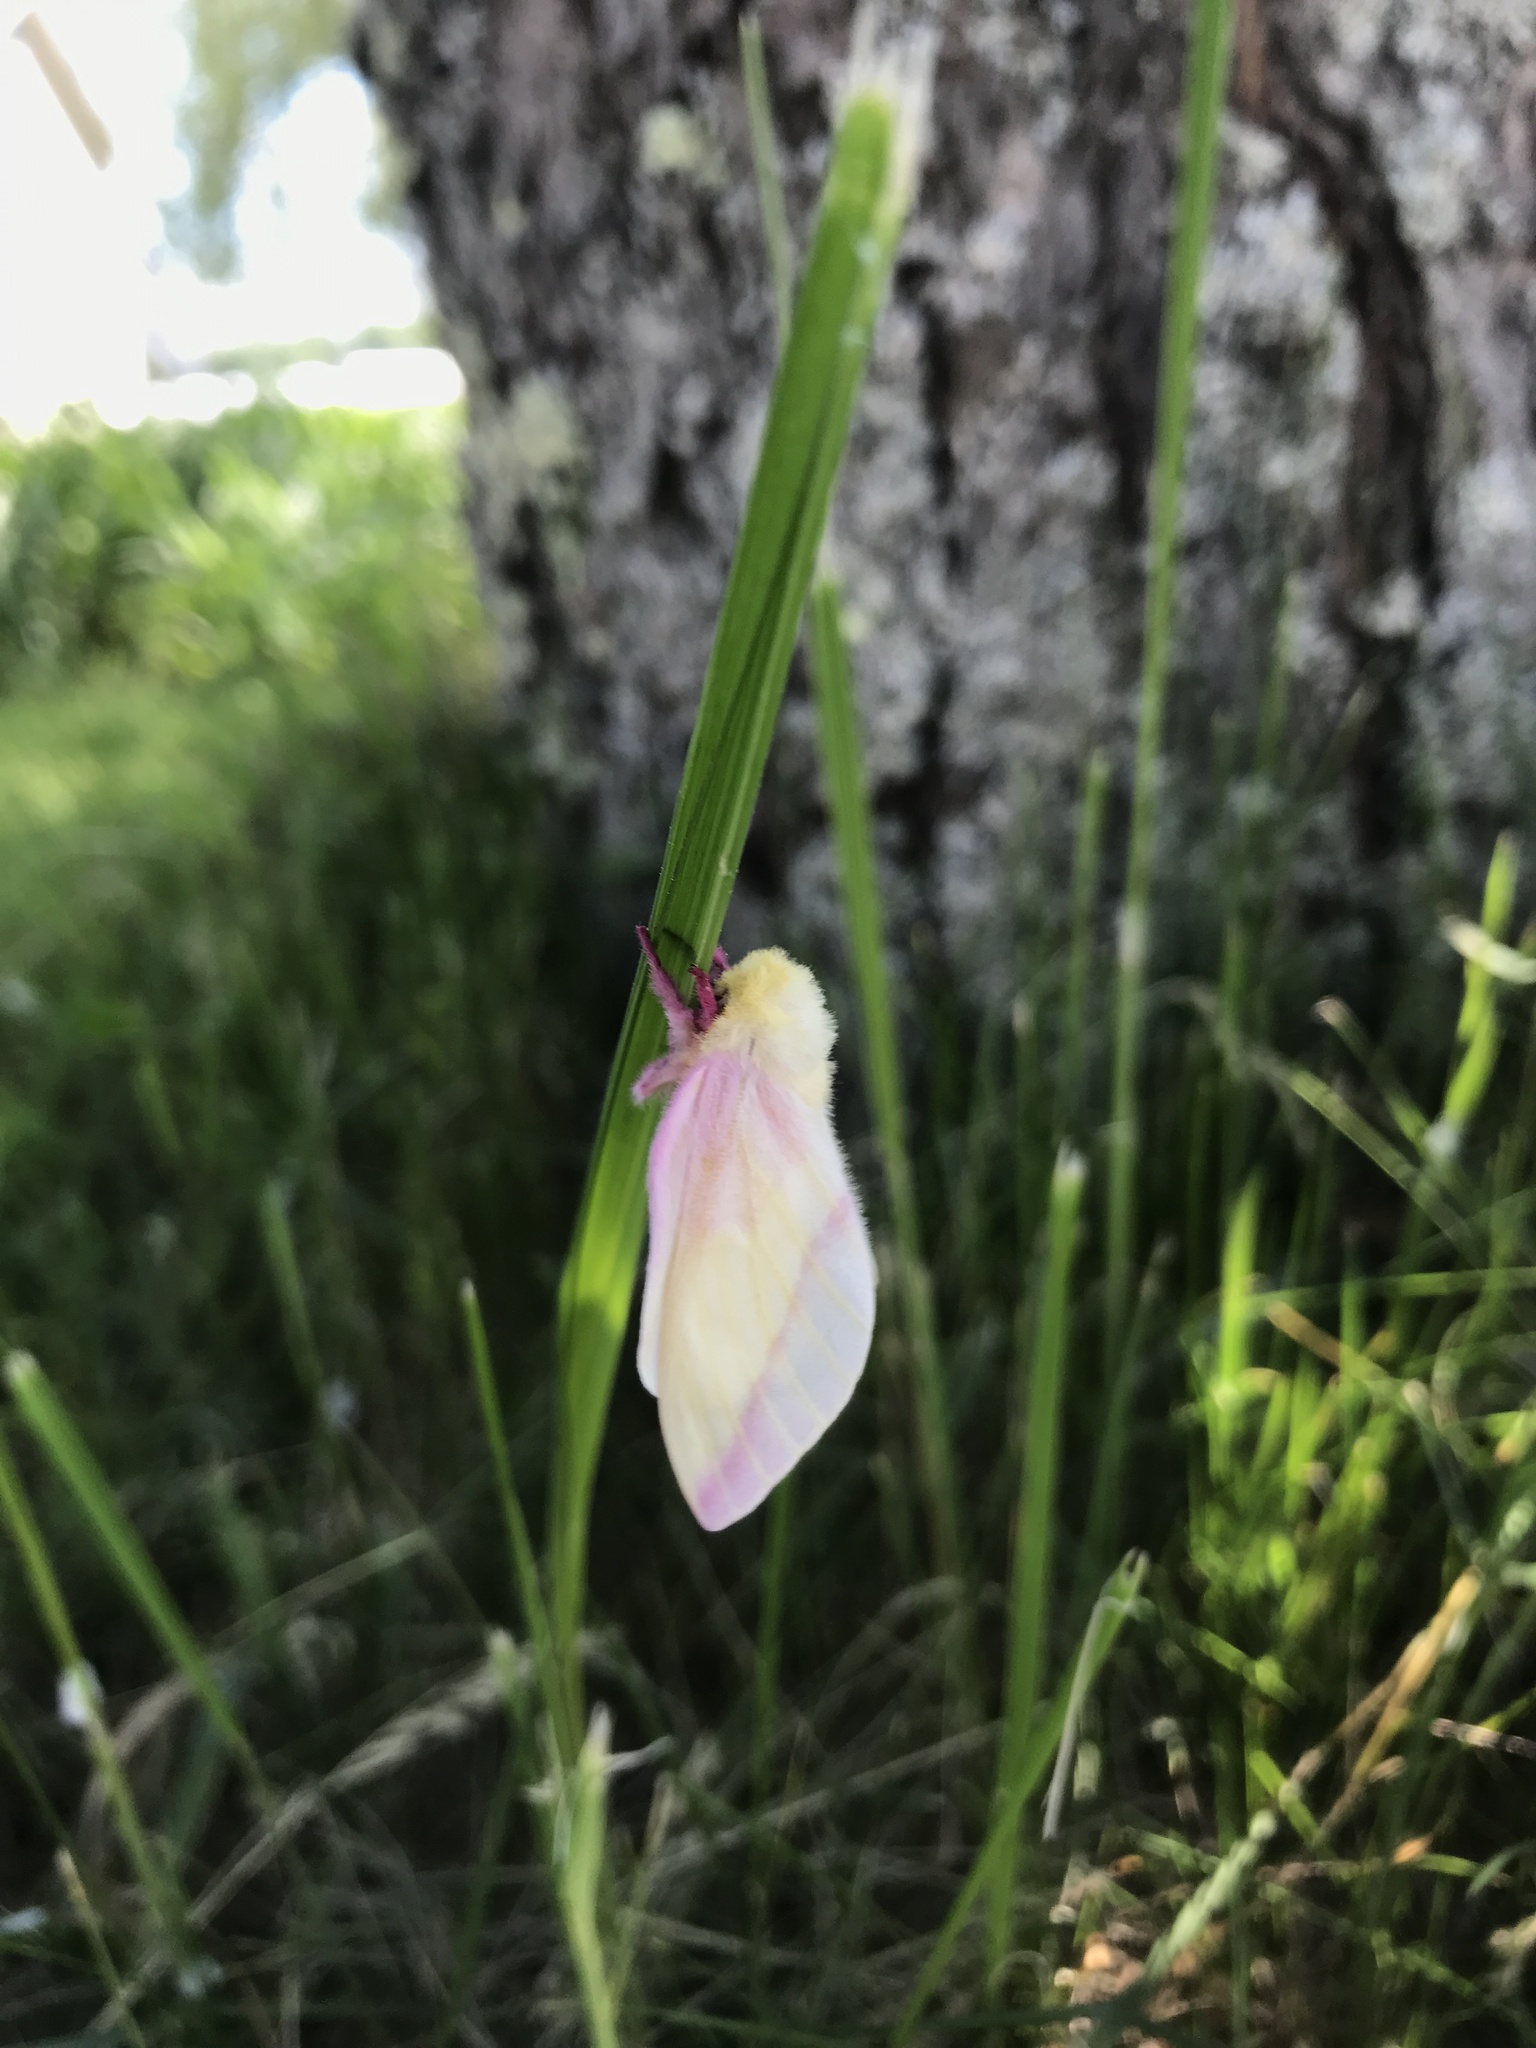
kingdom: Animalia
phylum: Arthropoda
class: Insecta
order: Lepidoptera
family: Saturniidae
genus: Dryocampa
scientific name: Dryocampa rubicunda
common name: Rosy maple moth
